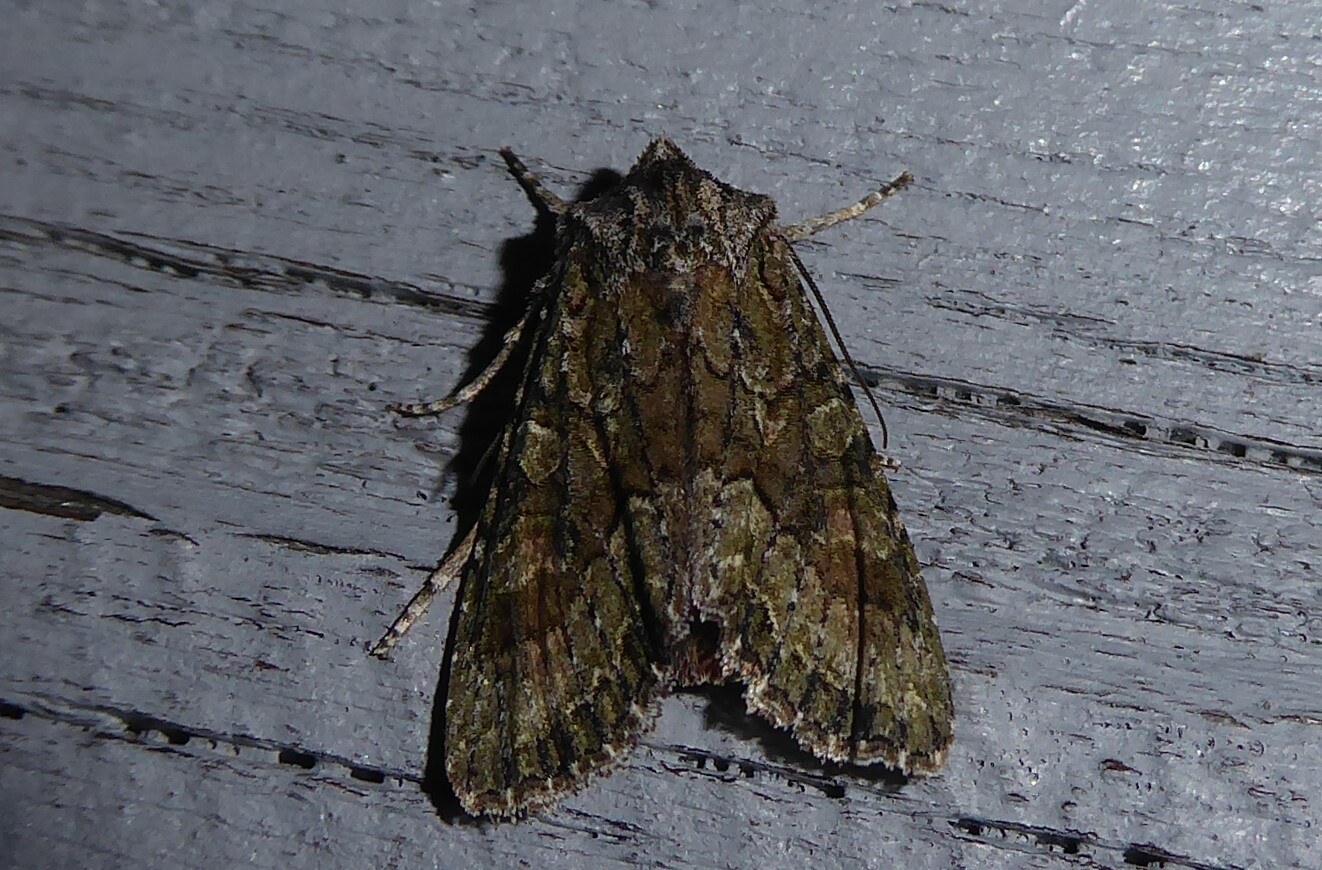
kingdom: Animalia
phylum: Arthropoda
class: Insecta
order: Lepidoptera
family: Noctuidae
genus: Ichneutica
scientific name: Ichneutica mutans
